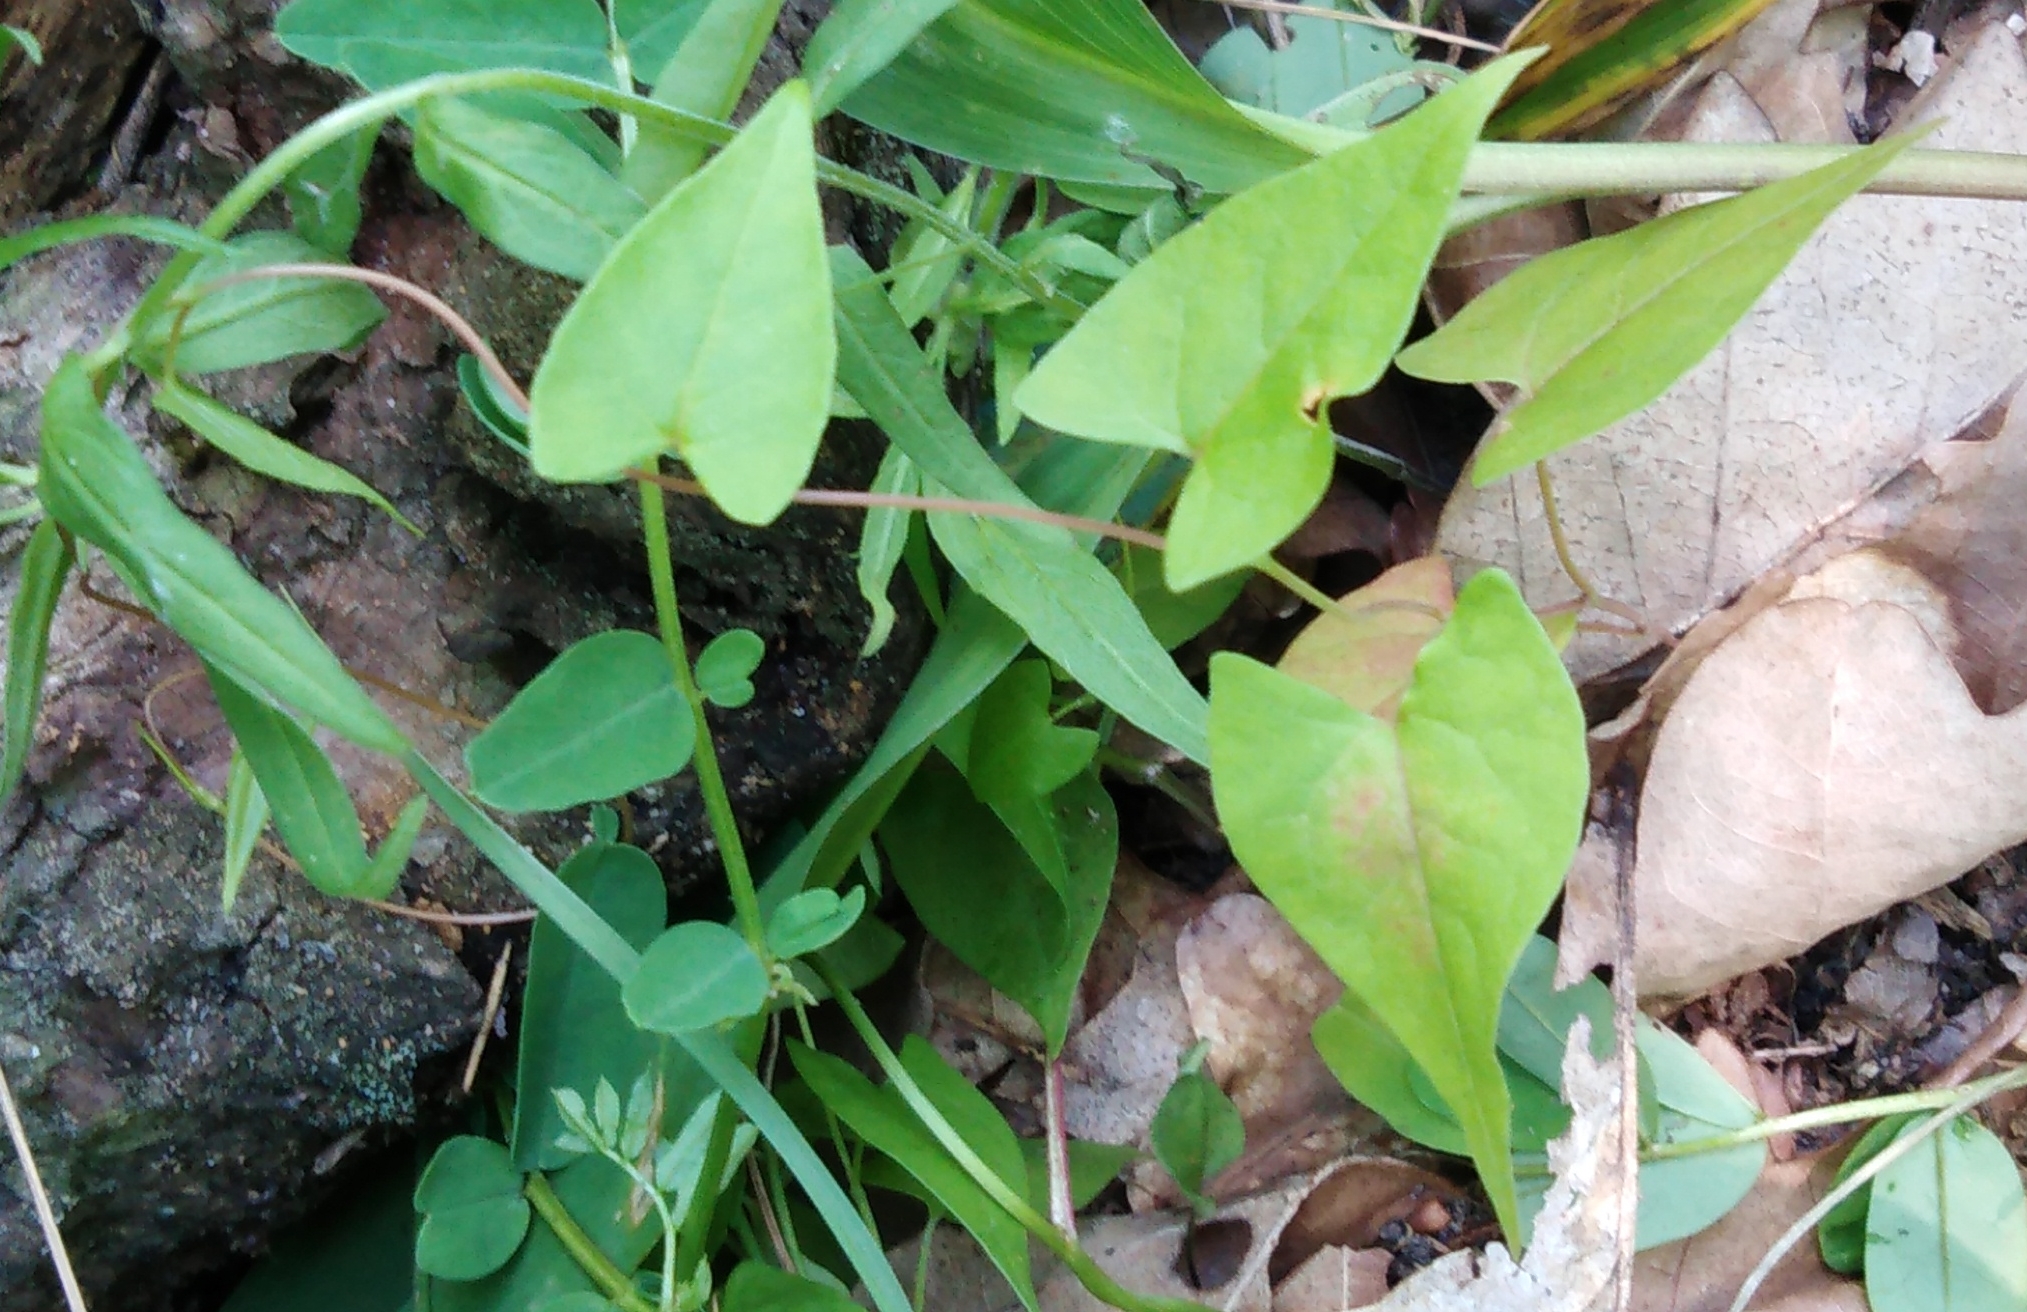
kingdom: Plantae
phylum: Tracheophyta
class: Magnoliopsida
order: Caryophyllales
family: Polygonaceae
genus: Fallopia
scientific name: Fallopia convolvulus
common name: Black bindweed
